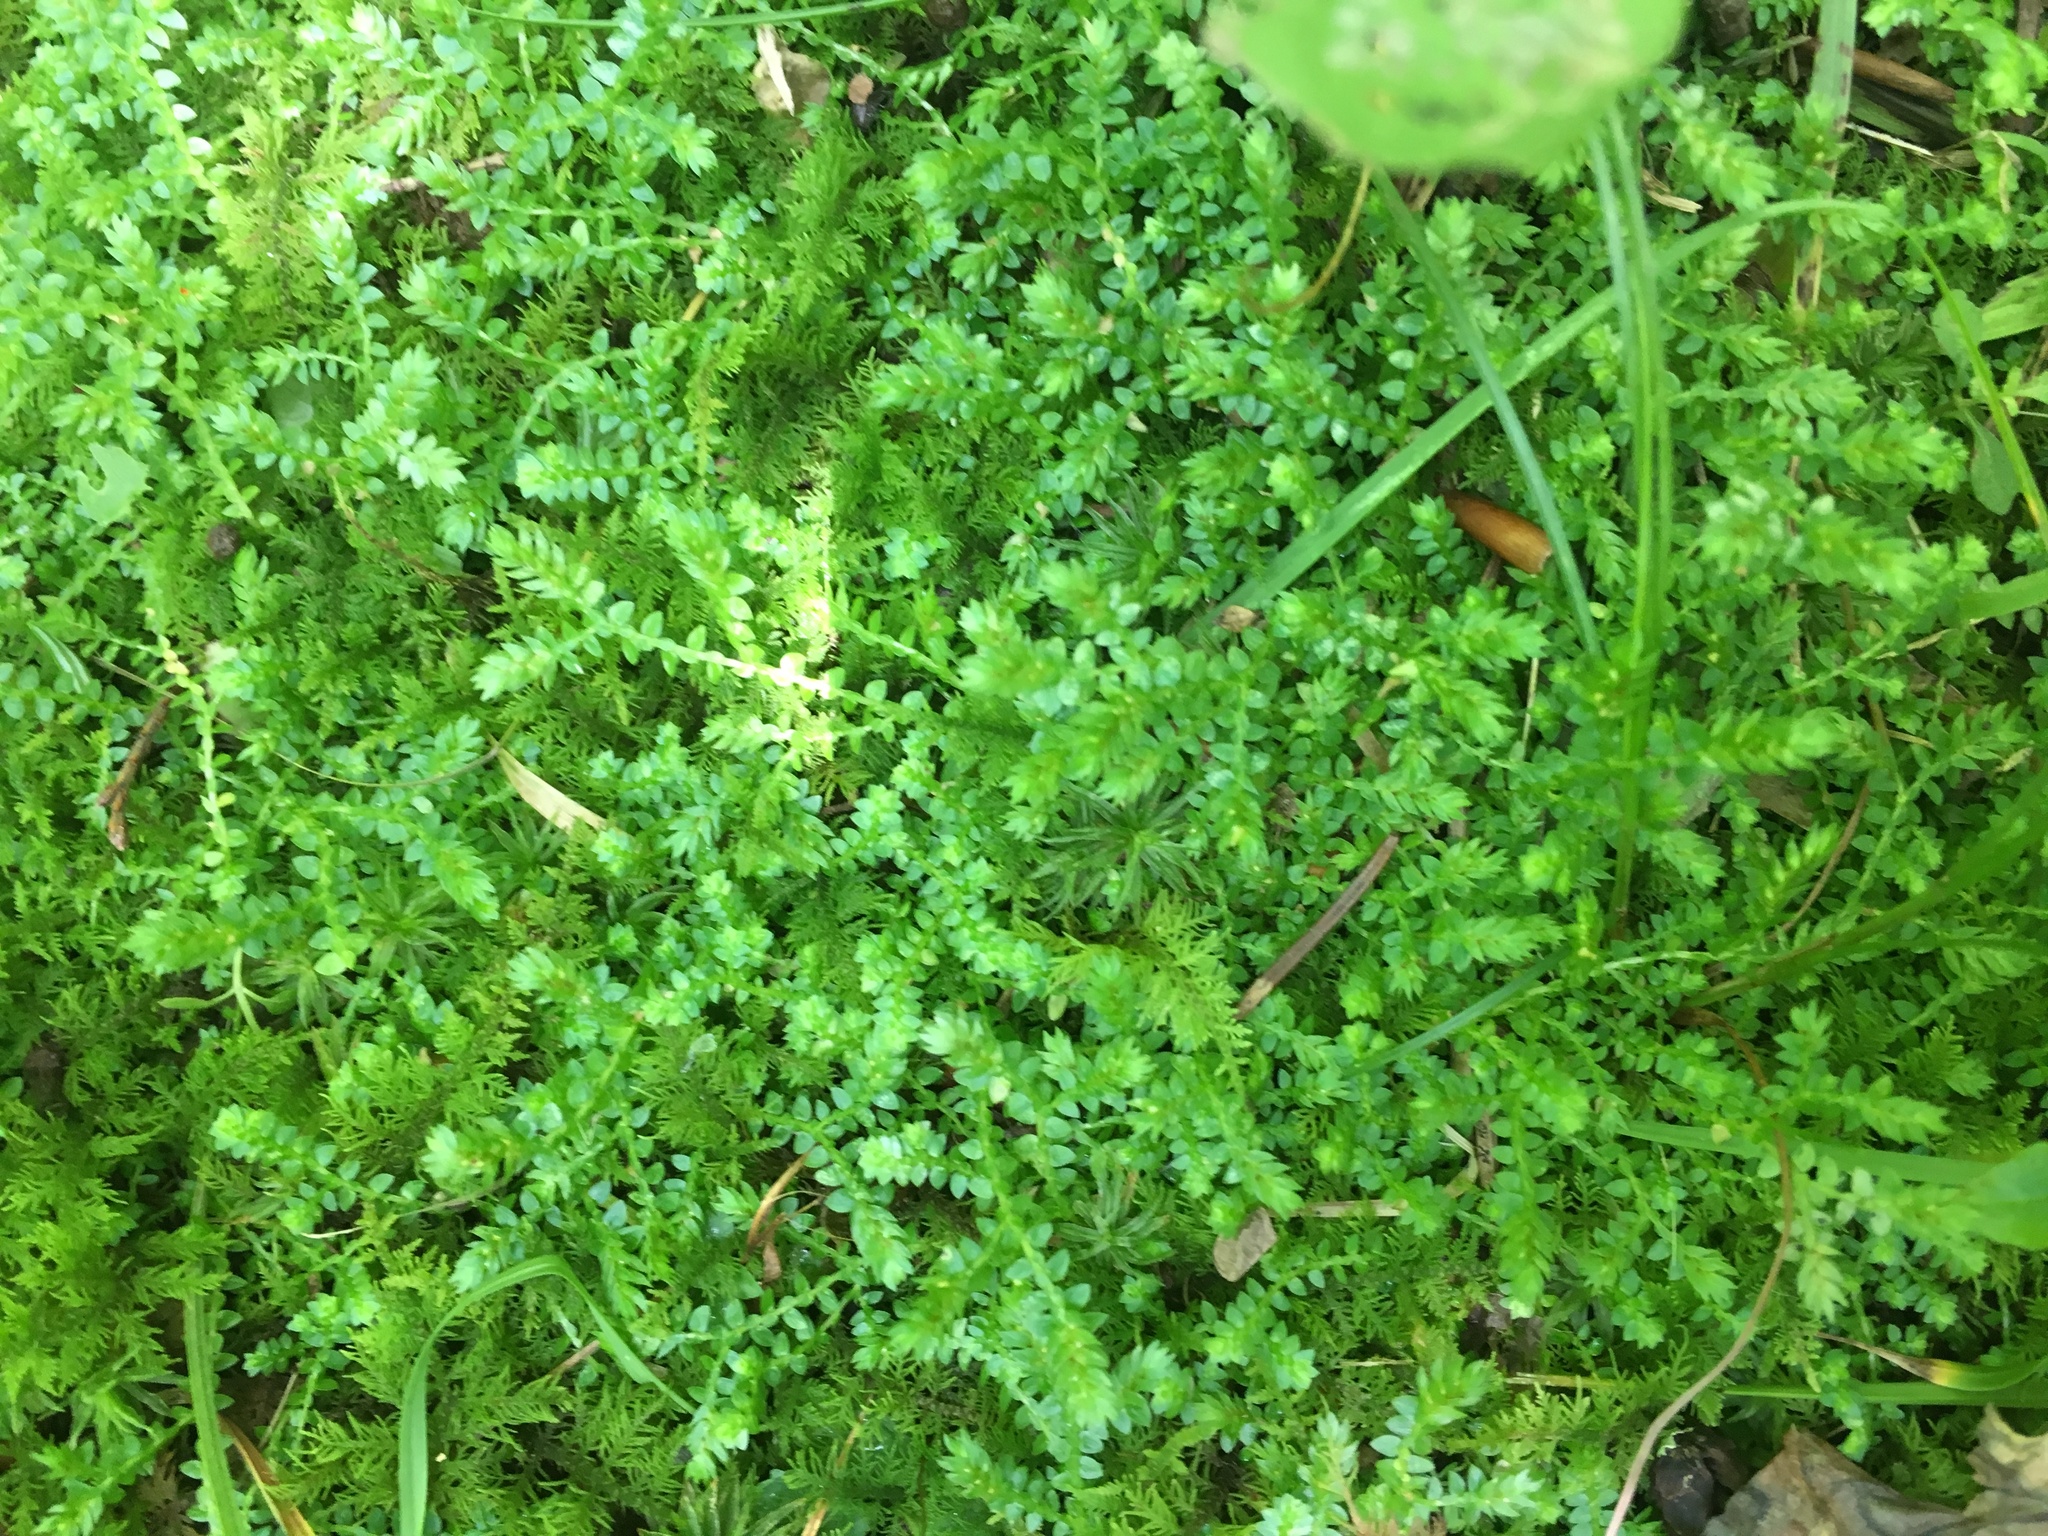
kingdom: Plantae
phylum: Tracheophyta
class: Lycopodiopsida
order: Selaginellales
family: Selaginellaceae
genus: Selaginella
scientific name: Selaginella apoda
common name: Creeping spikemoss
